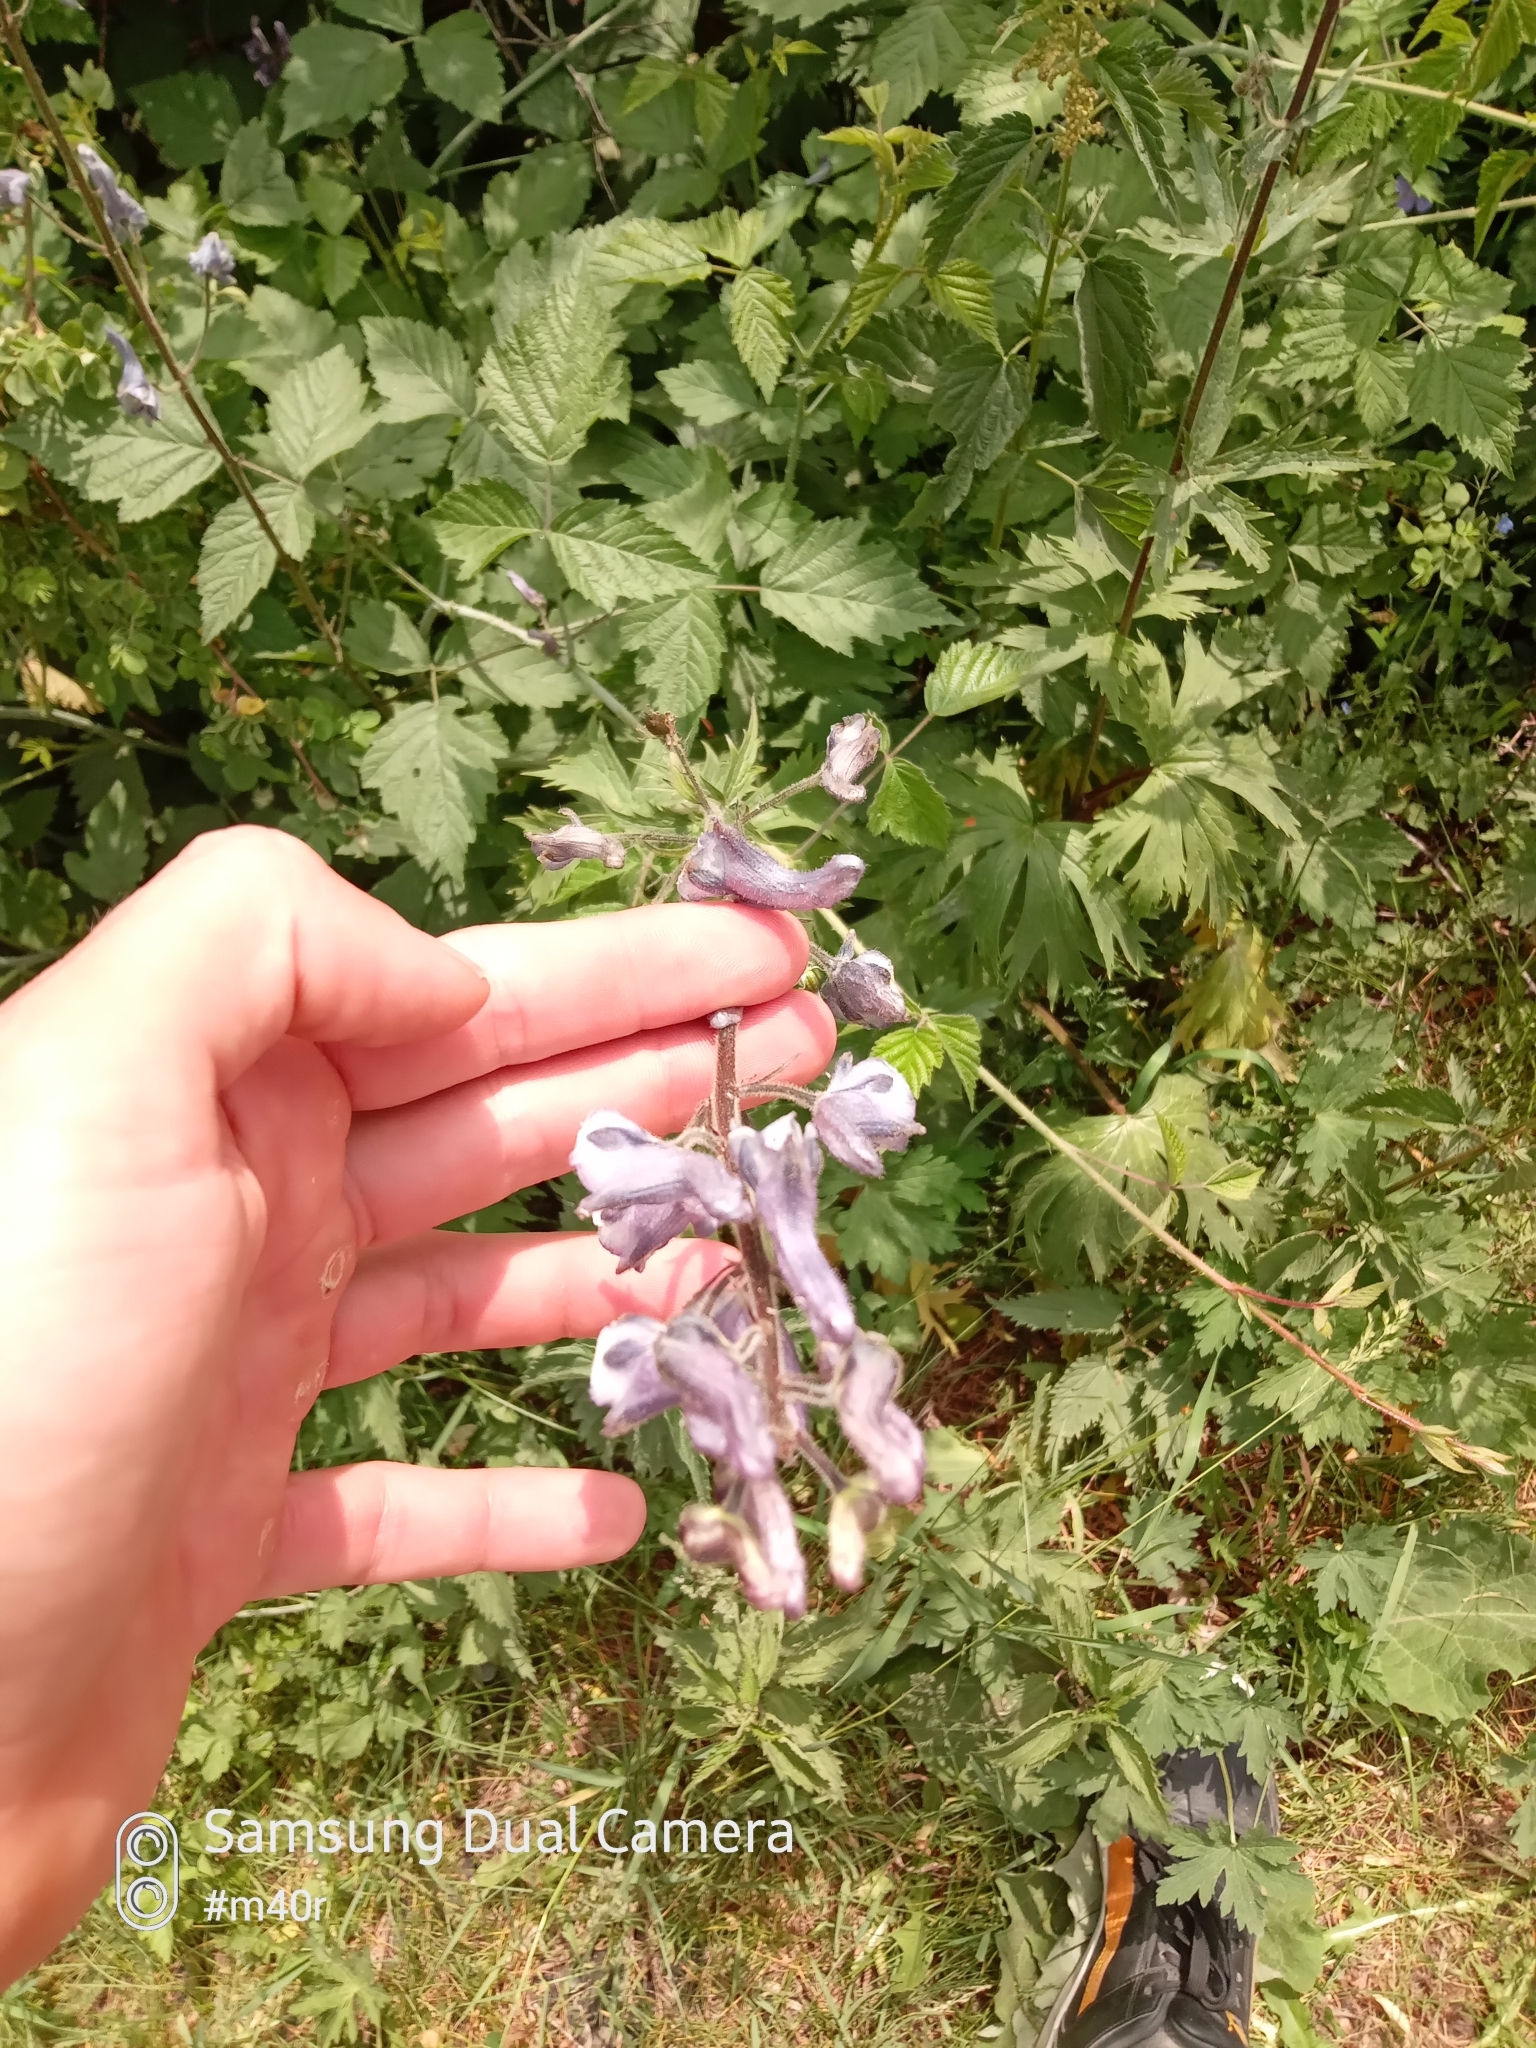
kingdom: Plantae
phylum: Tracheophyta
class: Magnoliopsida
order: Ranunculales
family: Ranunculaceae
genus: Aconitum
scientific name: Aconitum leucostomum
